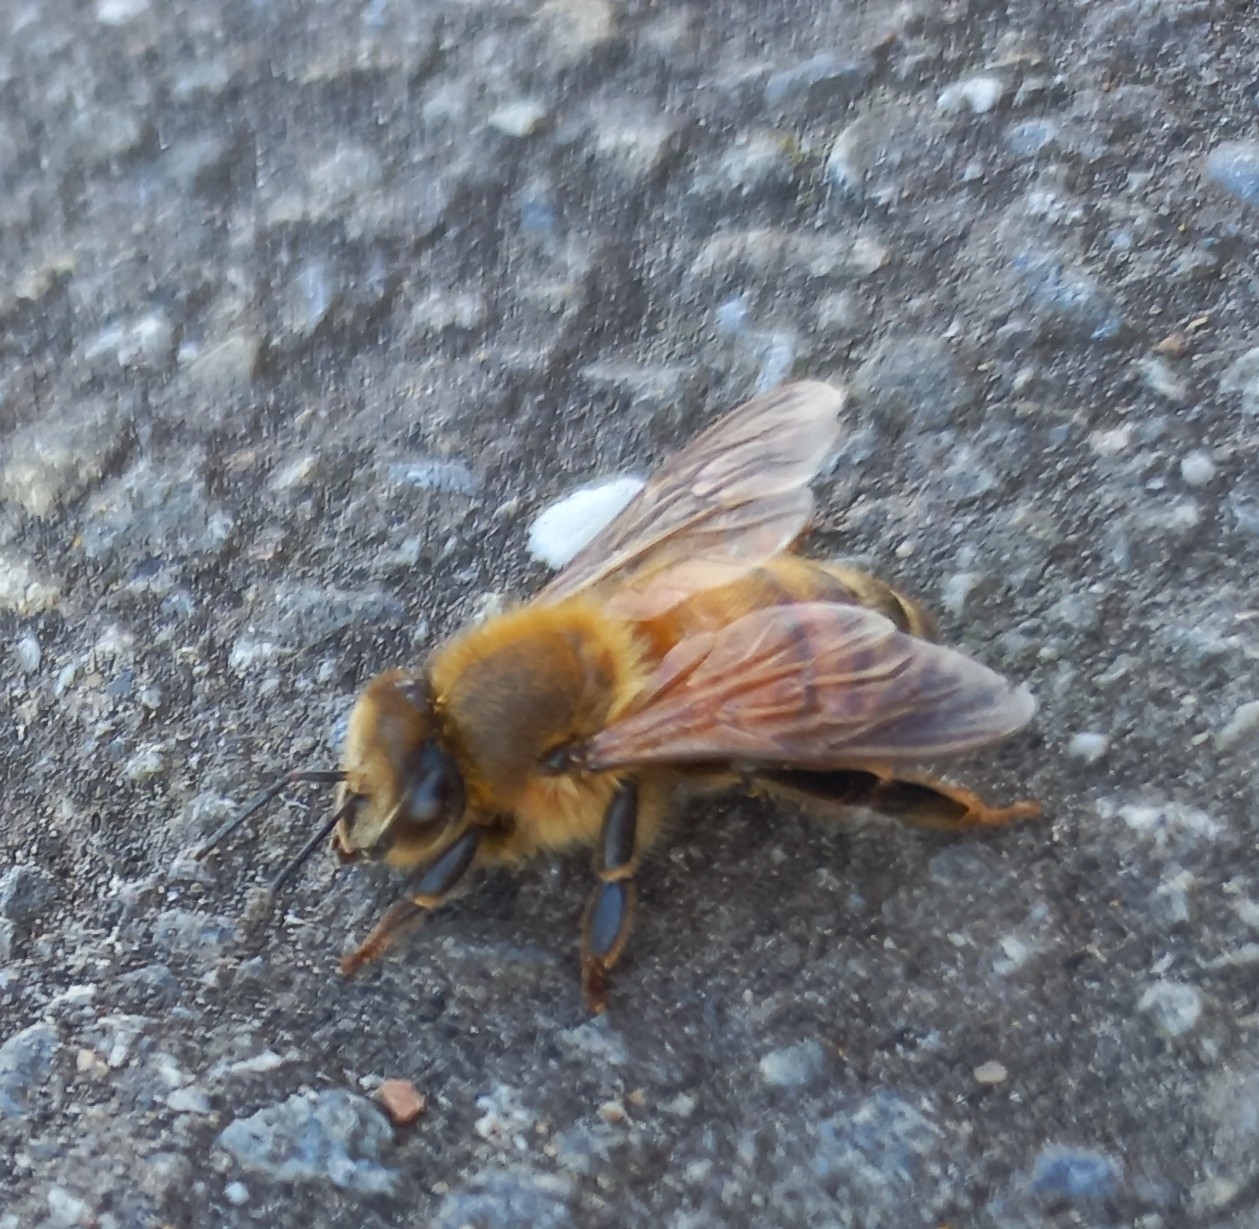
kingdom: Animalia
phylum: Arthropoda
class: Insecta
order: Hymenoptera
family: Apidae
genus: Apis
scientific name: Apis mellifera
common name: Honey bee
